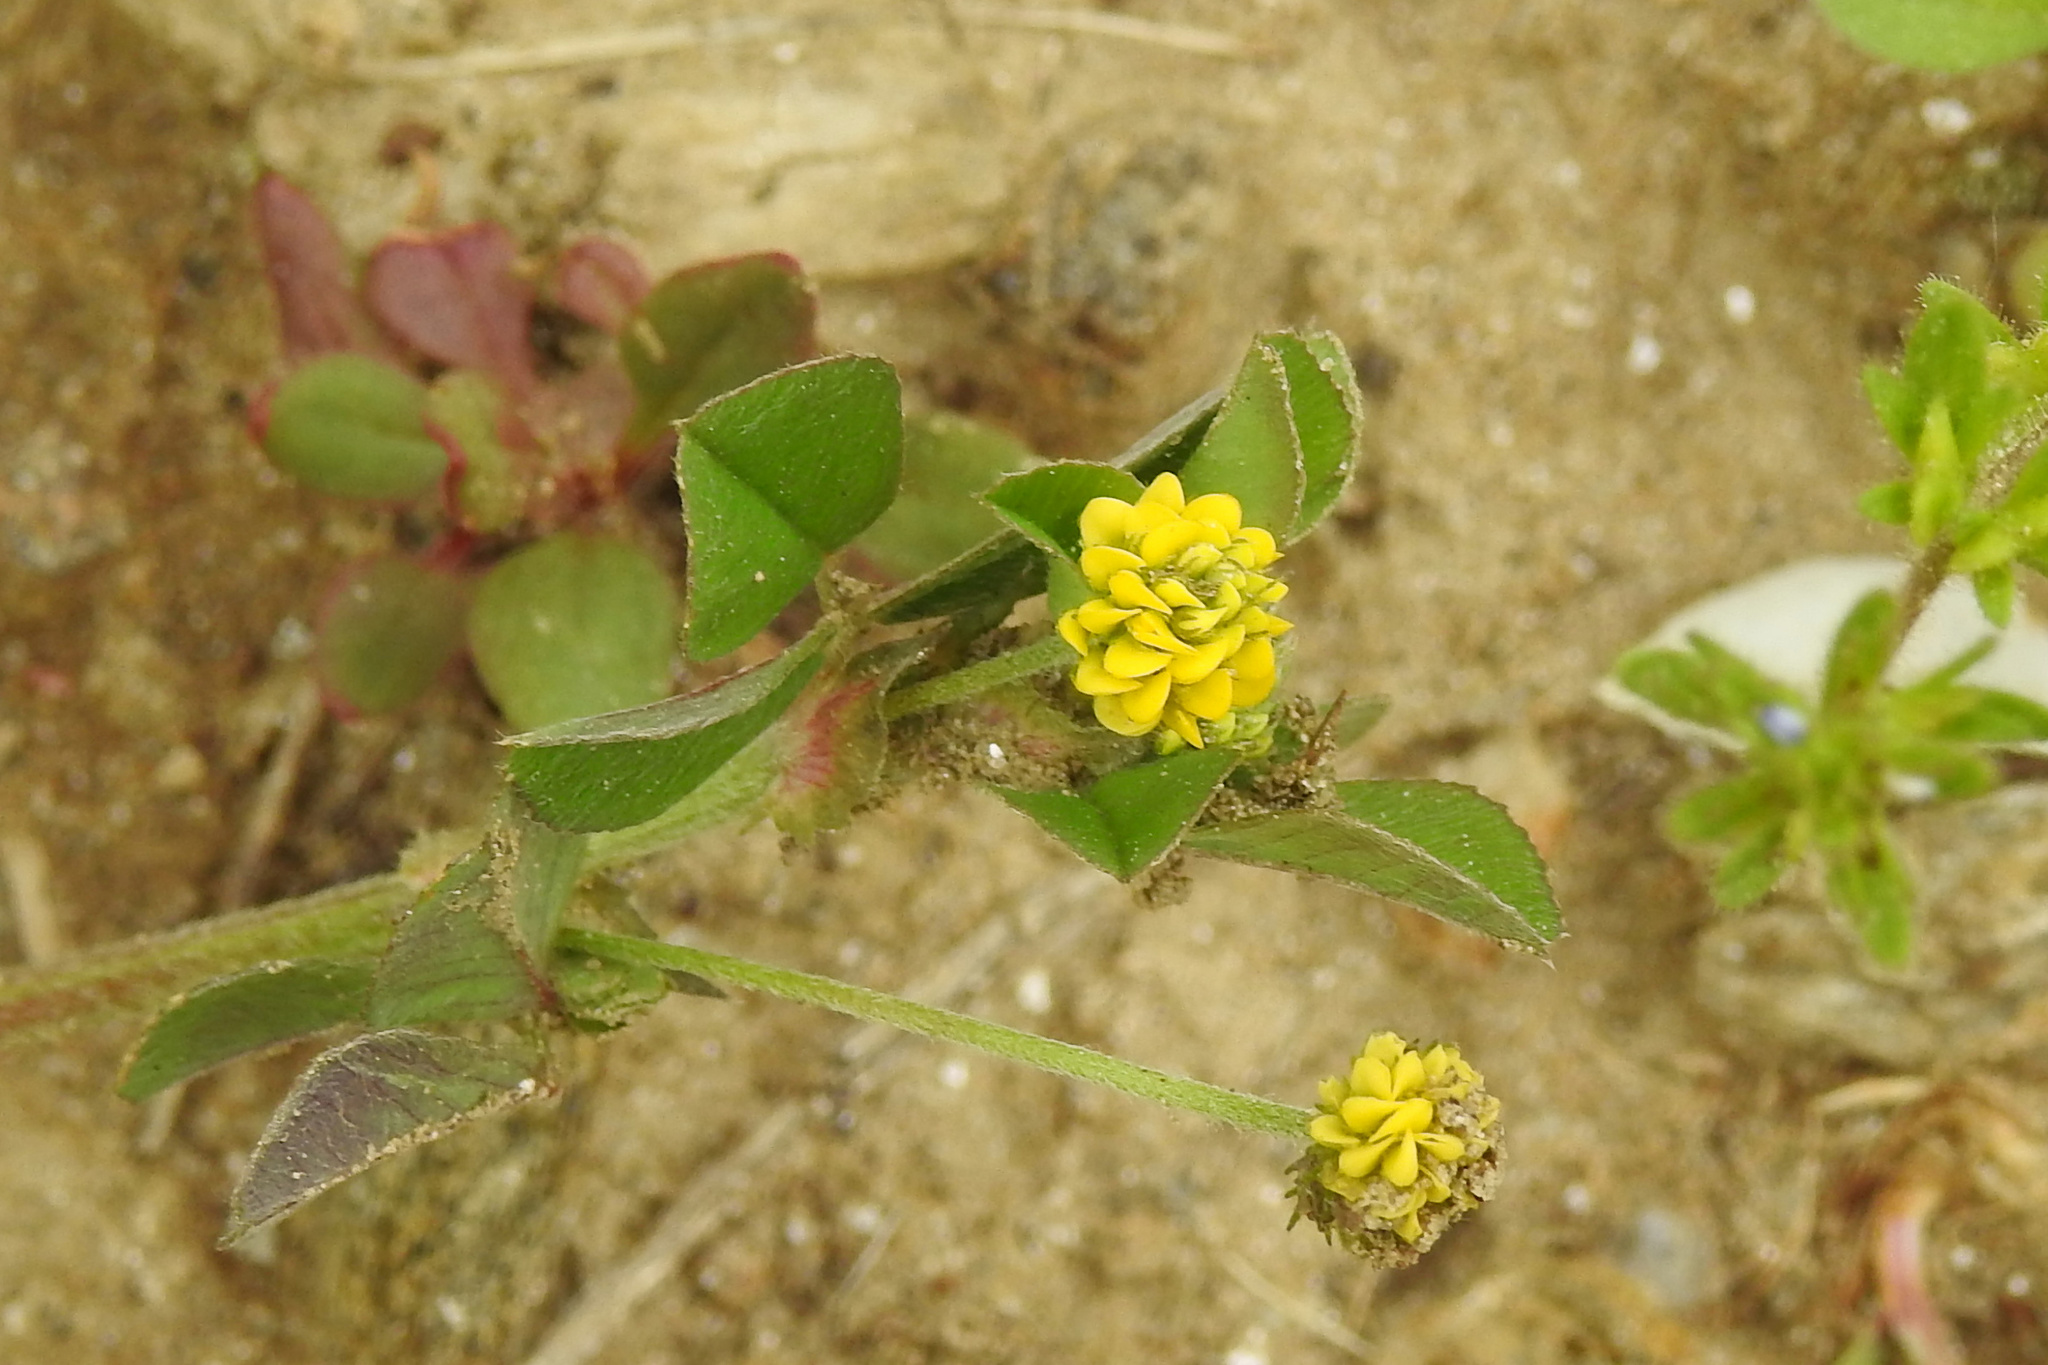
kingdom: Plantae
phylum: Tracheophyta
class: Magnoliopsida
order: Fabales
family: Fabaceae
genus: Medicago
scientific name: Medicago lupulina
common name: Black medick
